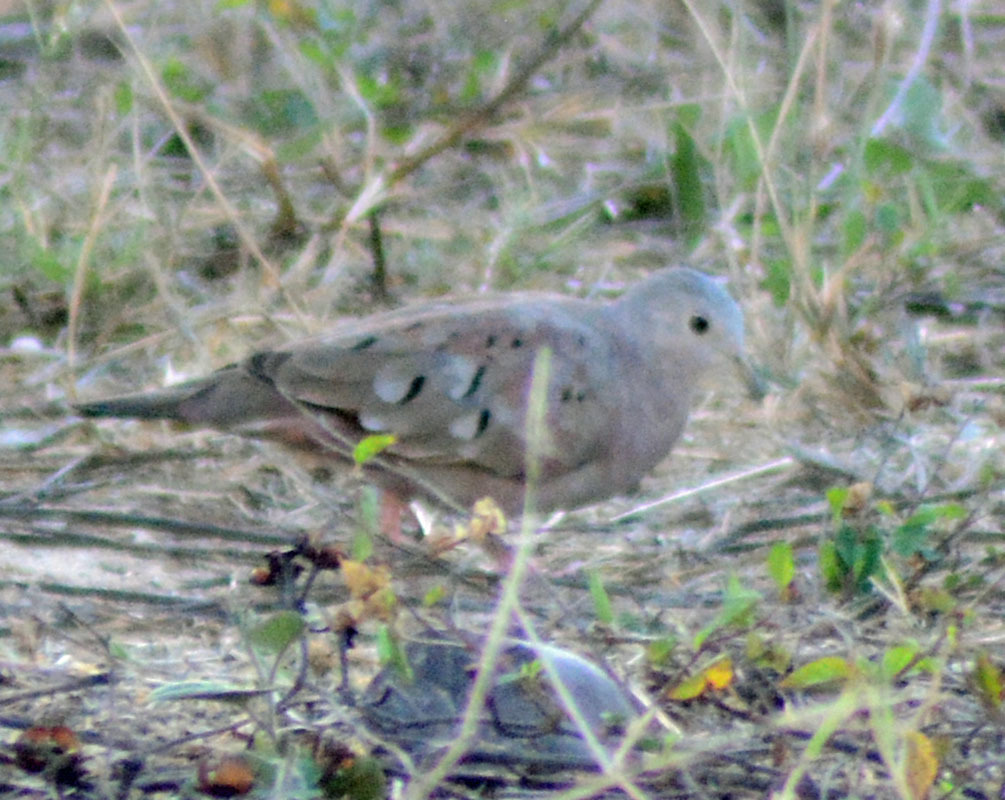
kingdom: Animalia
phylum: Chordata
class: Aves
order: Columbiformes
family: Columbidae
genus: Columbina
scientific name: Columbina talpacoti
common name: Ruddy ground dove
